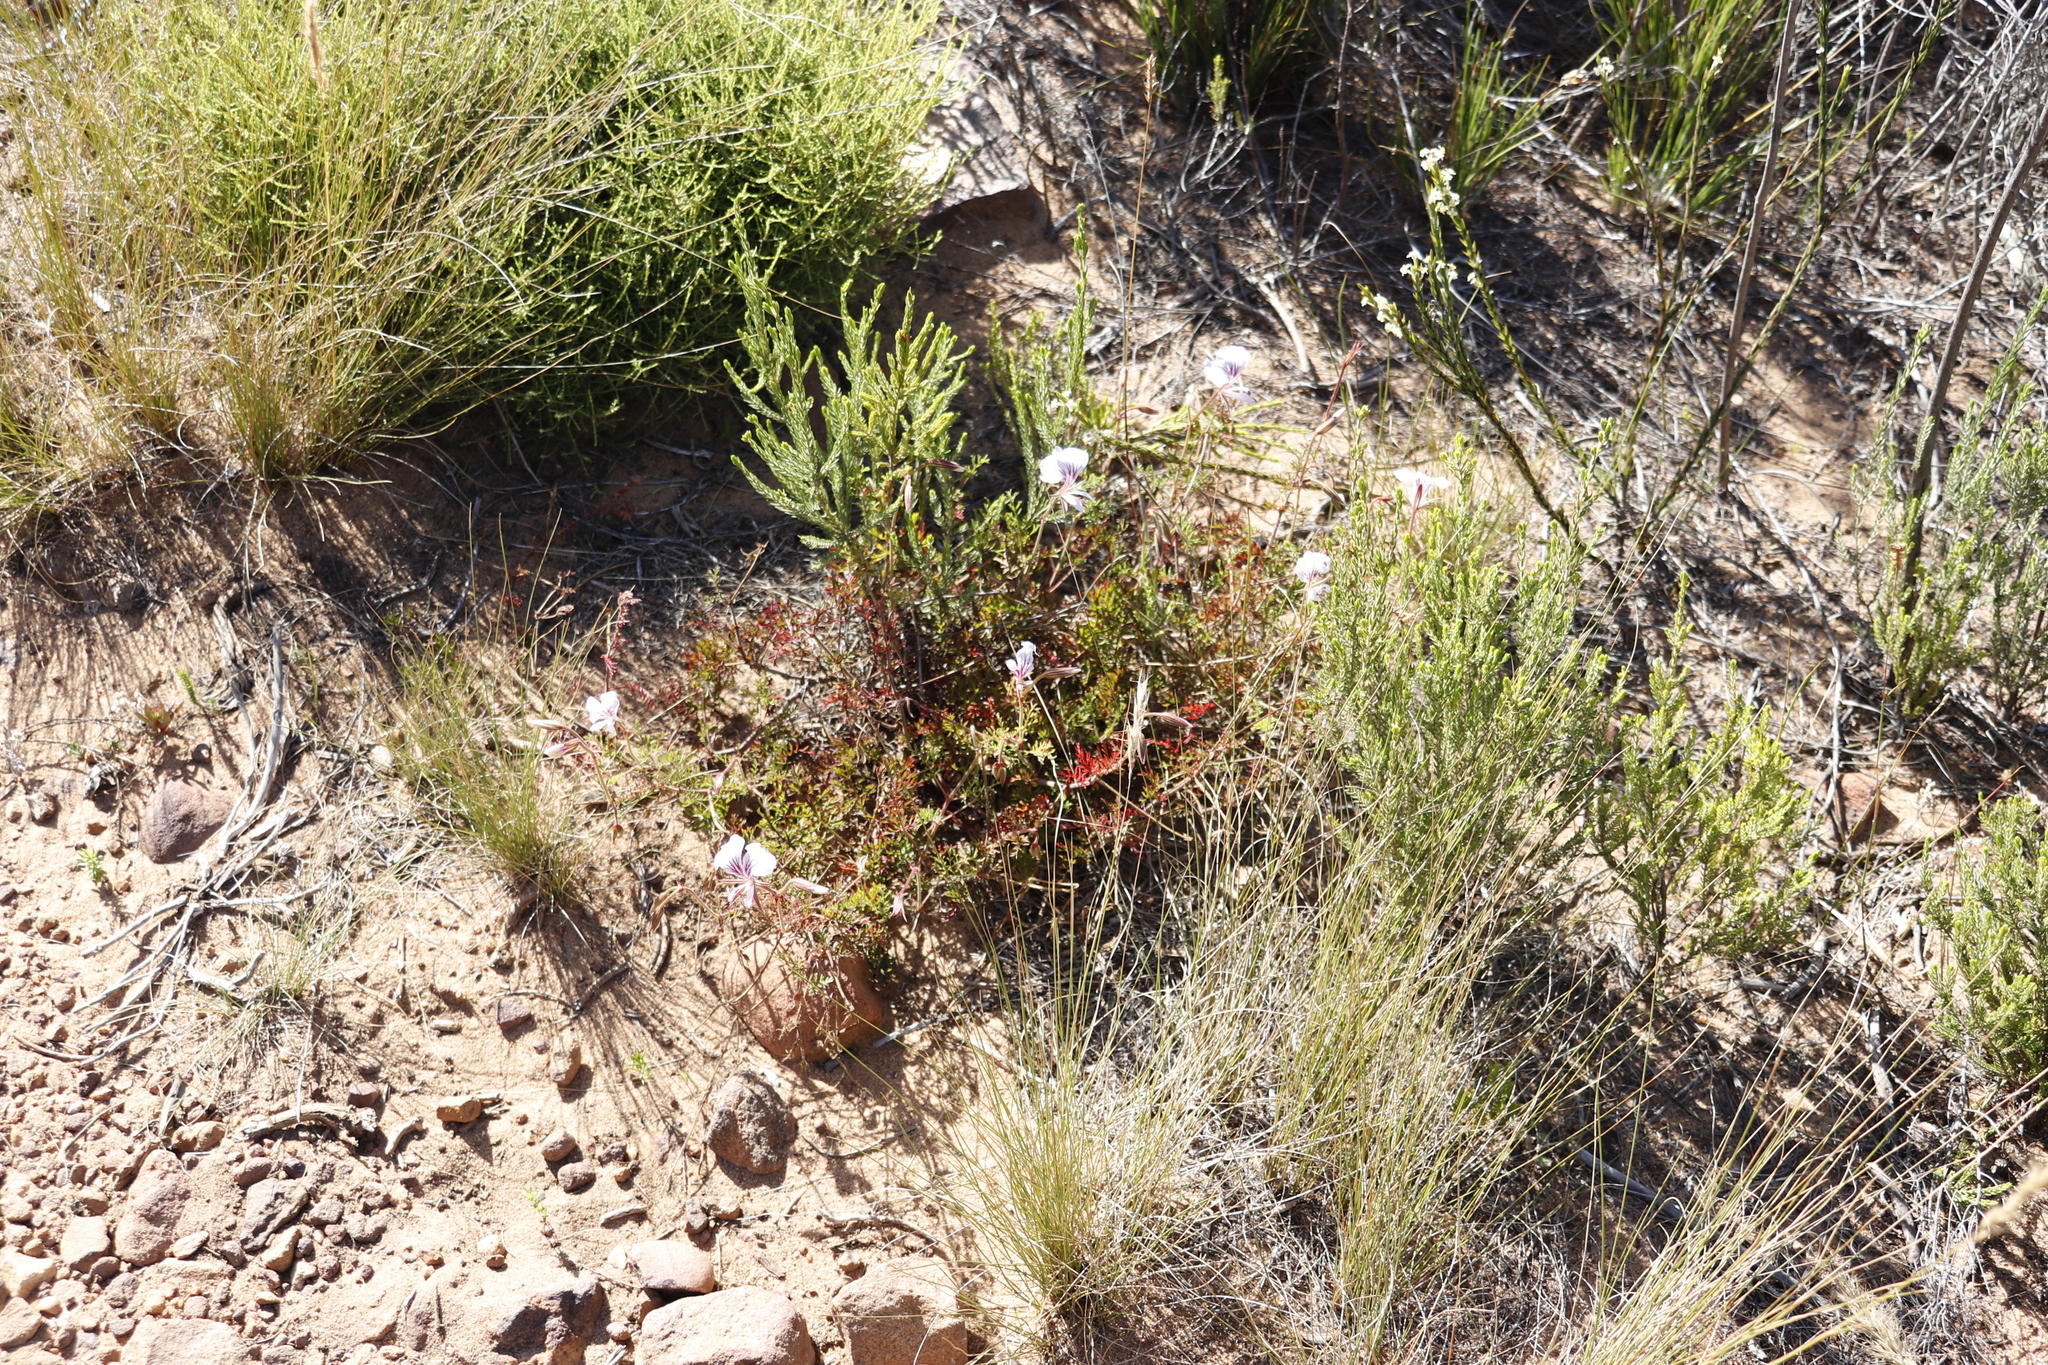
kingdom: Plantae
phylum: Tracheophyta
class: Magnoliopsida
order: Geraniales
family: Geraniaceae
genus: Pelargonium
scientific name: Pelargonium longicaule
